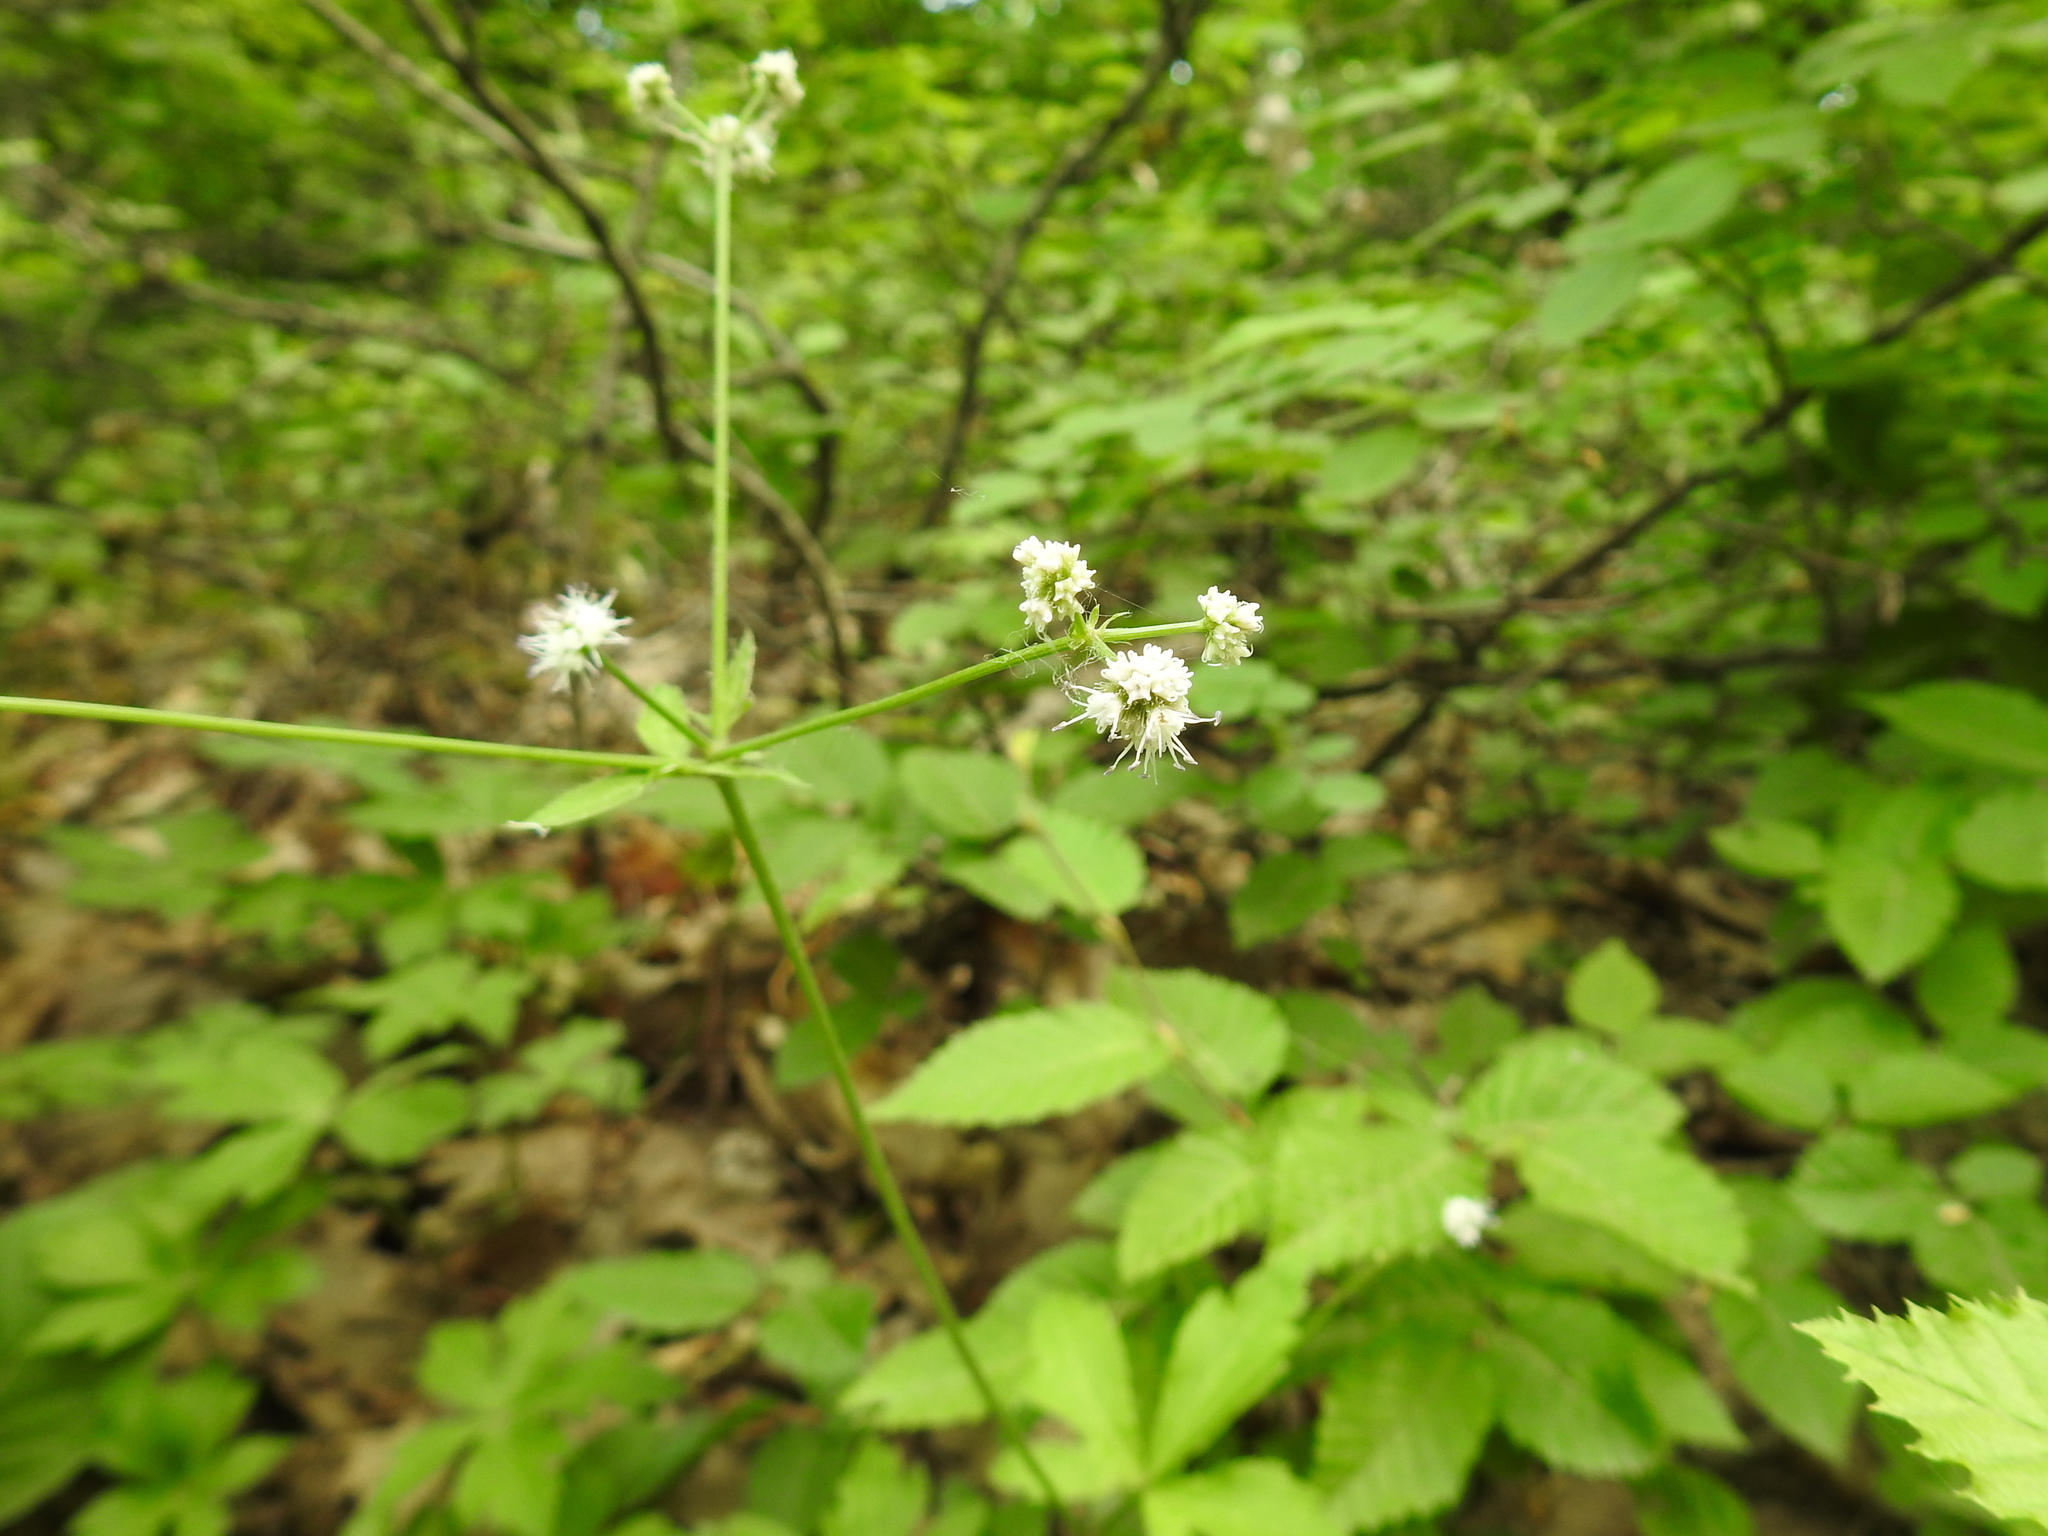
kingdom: Plantae
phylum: Tracheophyta
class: Magnoliopsida
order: Apiales
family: Apiaceae
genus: Sanicula
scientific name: Sanicula europaea
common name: Sanicle
